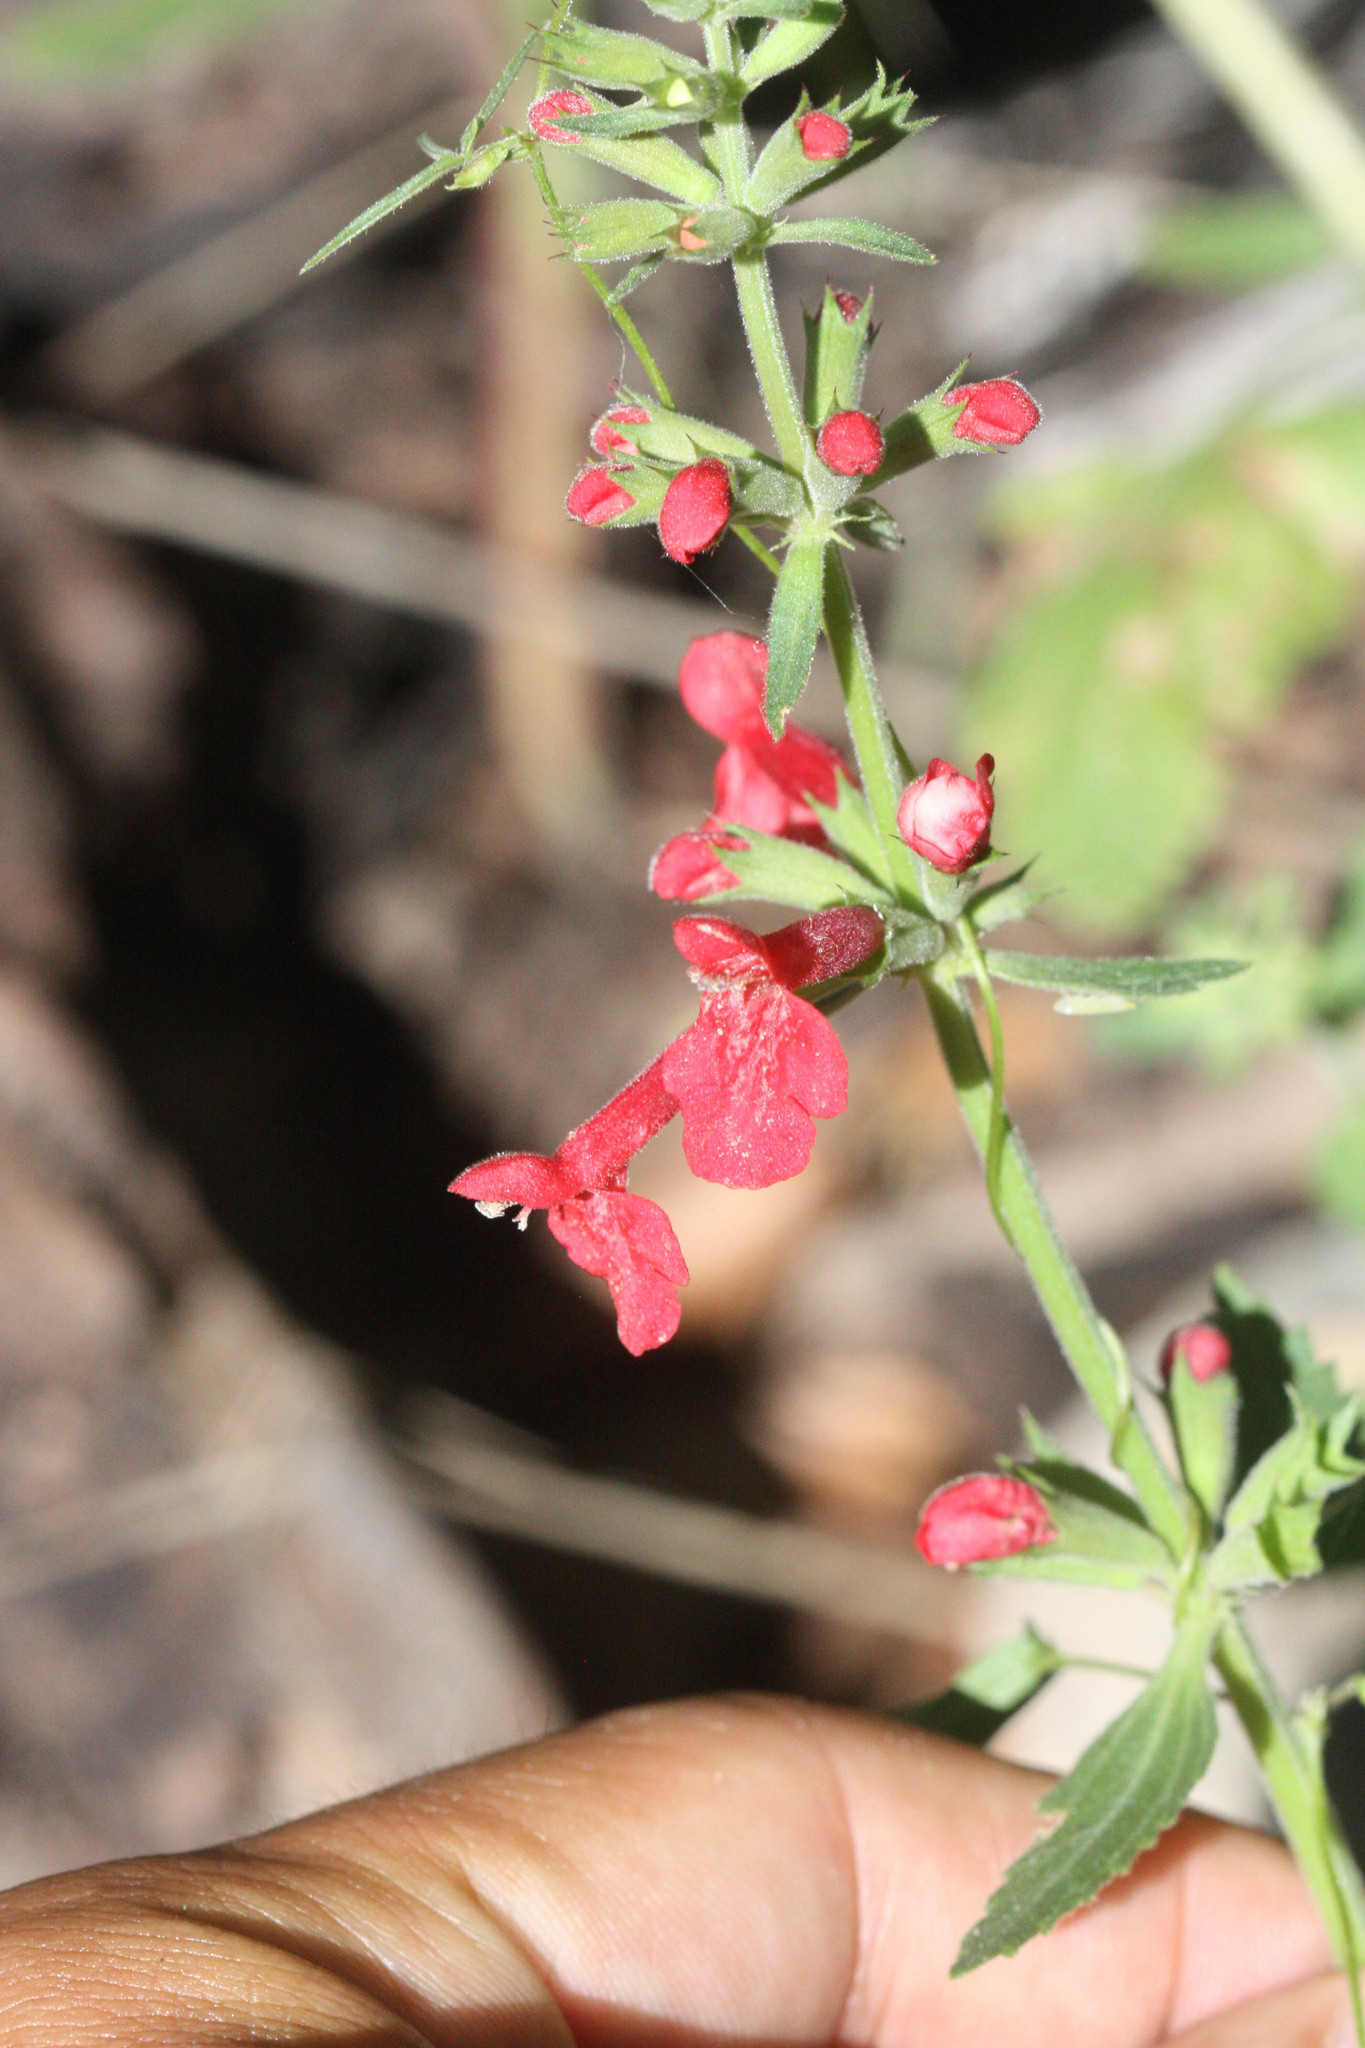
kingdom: Plantae
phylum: Tracheophyta
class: Magnoliopsida
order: Lamiales
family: Lamiaceae
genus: Stachys
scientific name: Stachys coccinea
